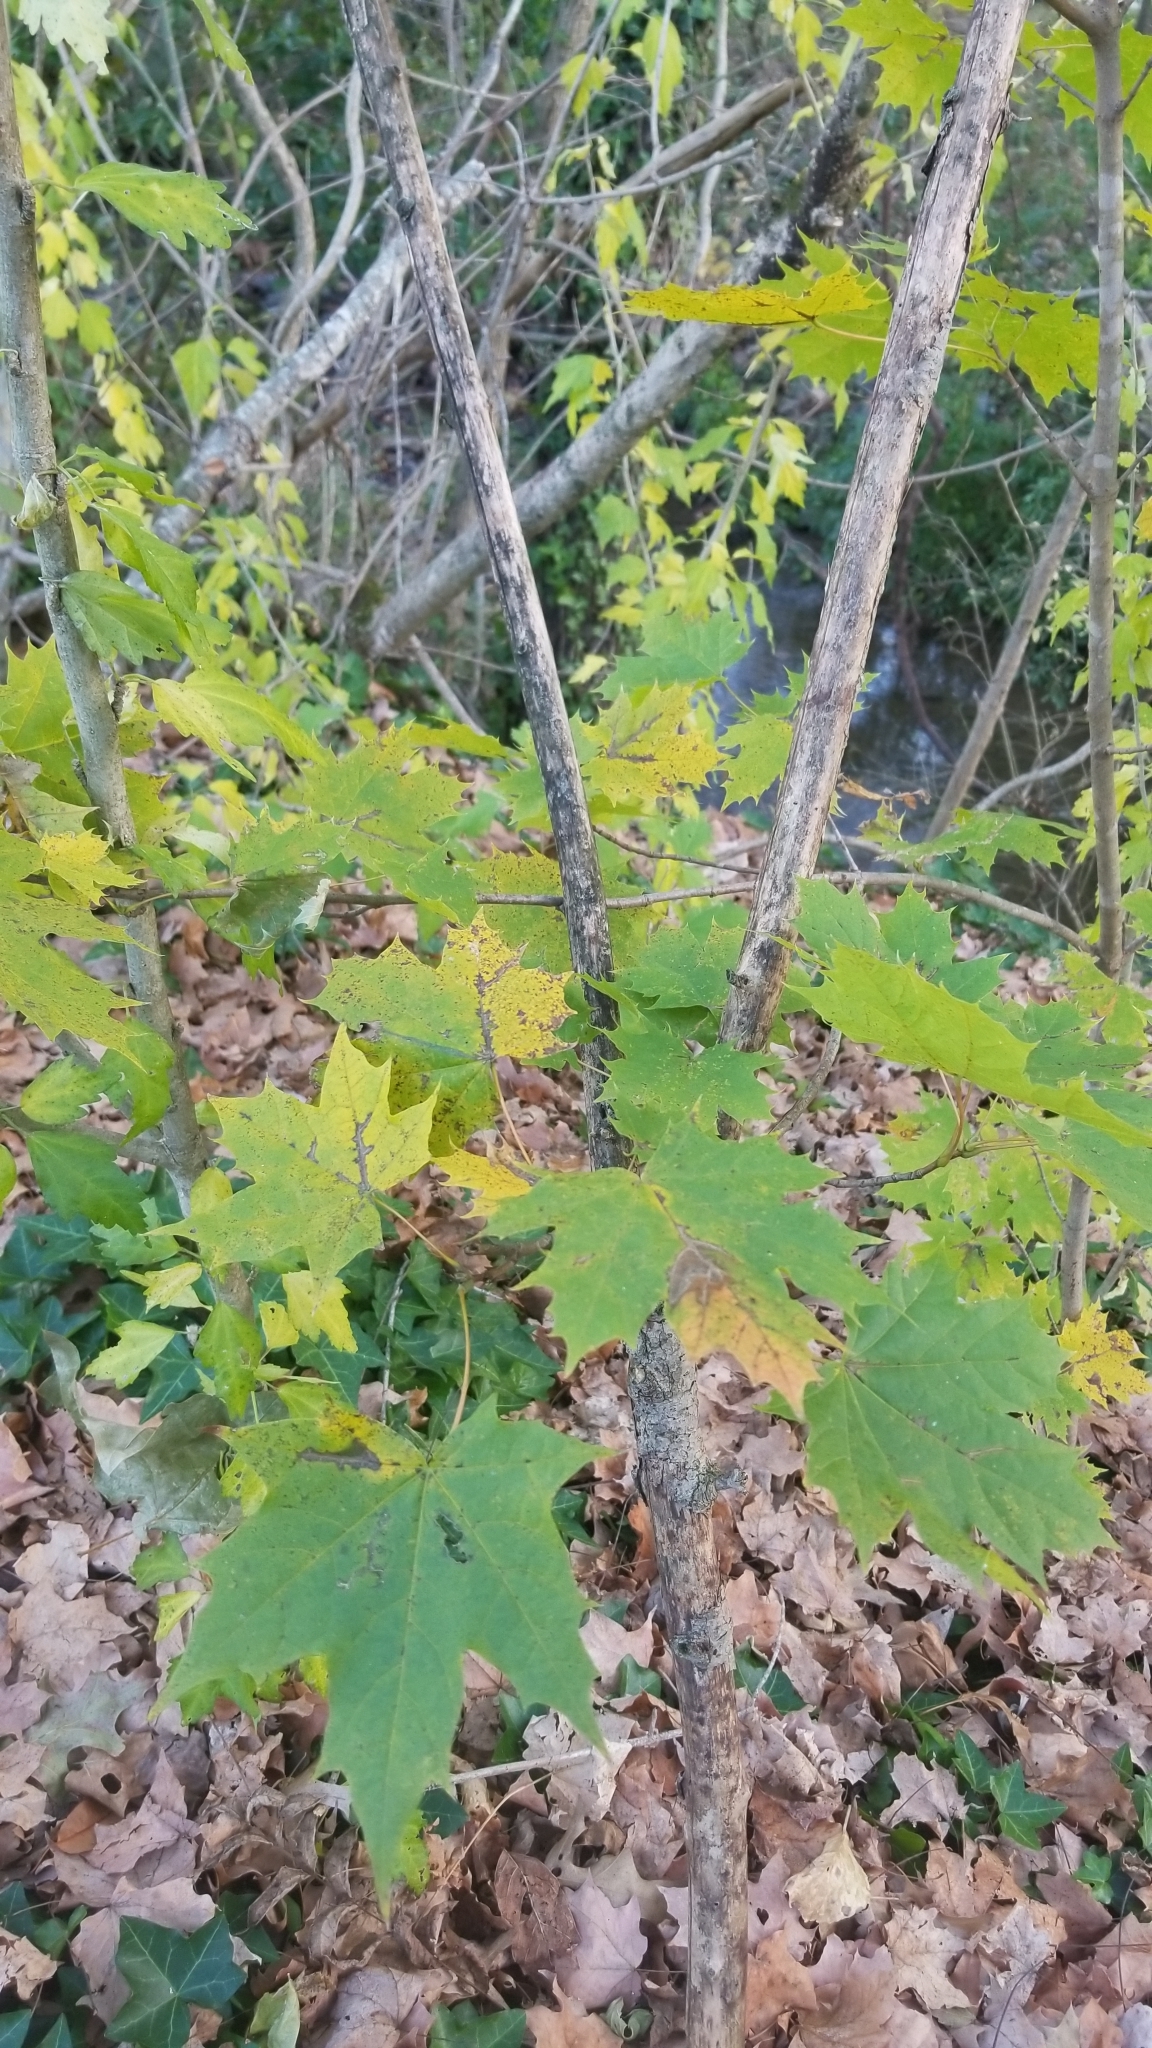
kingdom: Plantae
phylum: Tracheophyta
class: Magnoliopsida
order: Sapindales
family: Sapindaceae
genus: Acer
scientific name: Acer saccharum
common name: Sugar maple
